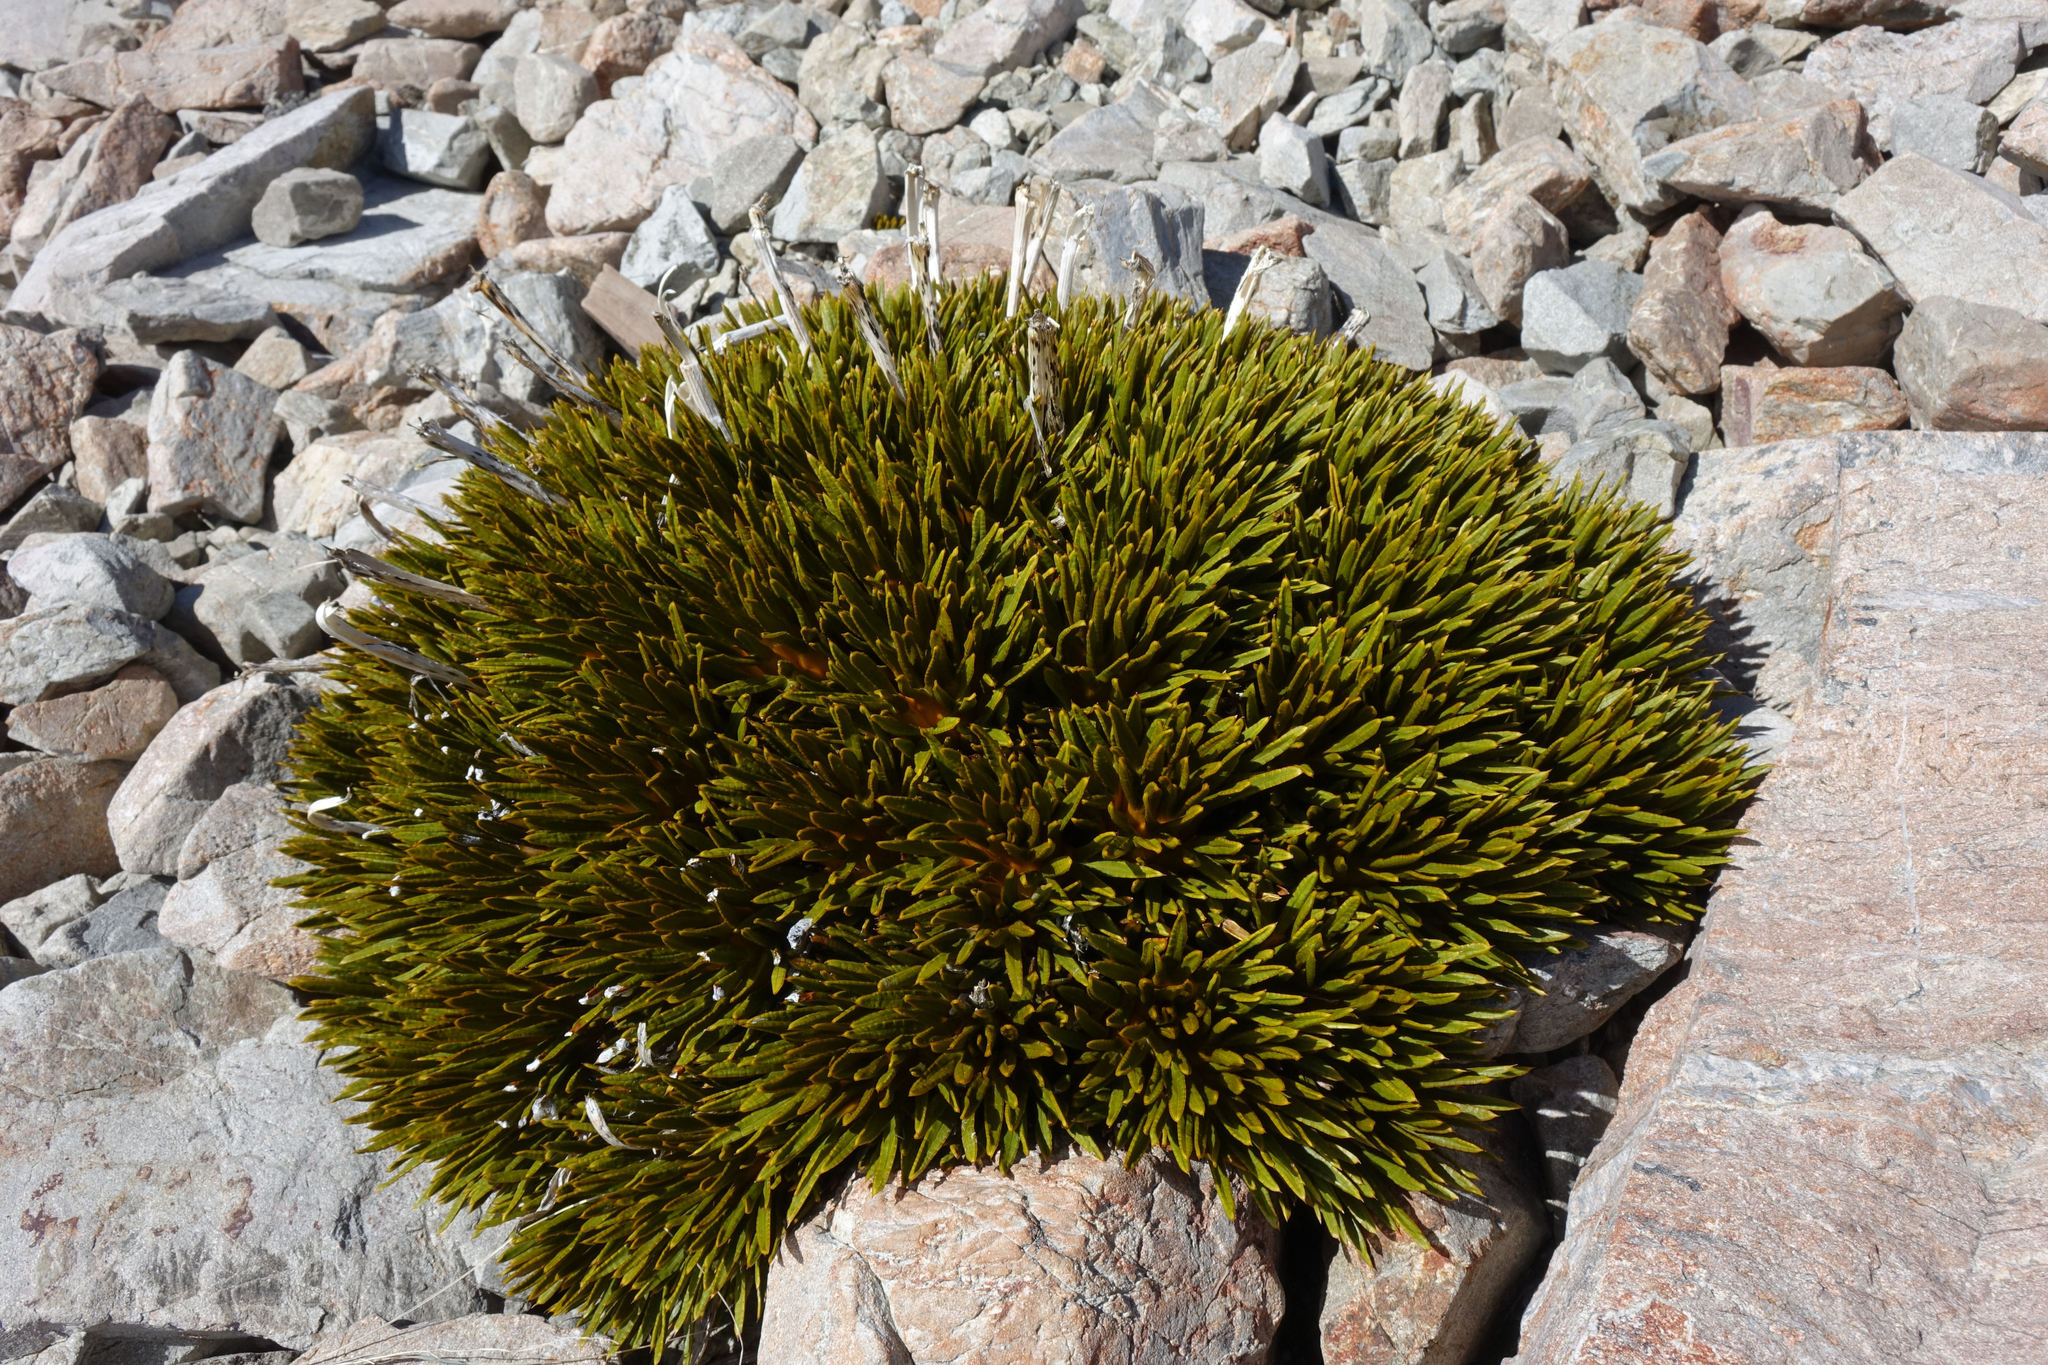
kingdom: Plantae
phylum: Tracheophyta
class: Magnoliopsida
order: Apiales
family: Apiaceae
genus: Aciphylla
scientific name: Aciphylla dobsonii
